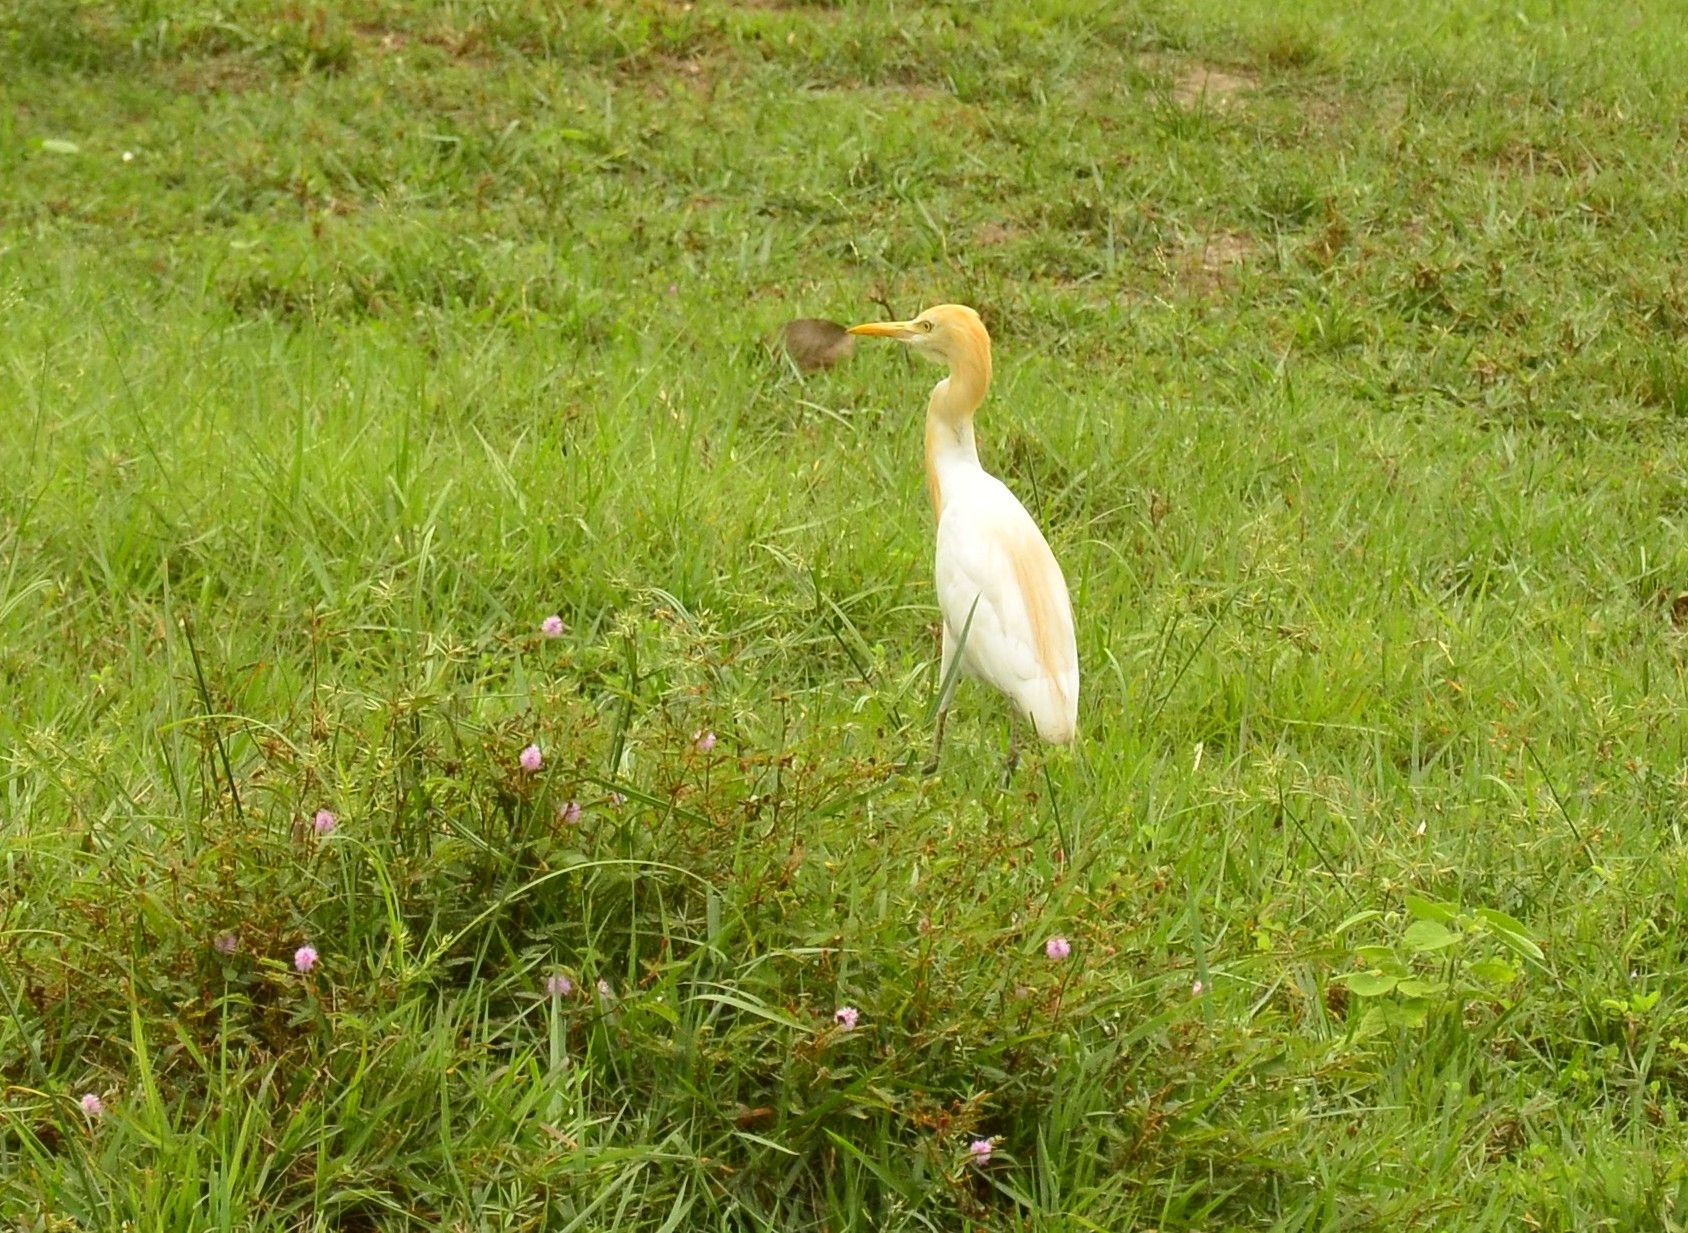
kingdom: Animalia
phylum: Chordata
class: Aves
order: Pelecaniformes
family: Ardeidae
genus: Bubulcus
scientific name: Bubulcus coromandus
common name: Eastern cattle egret
